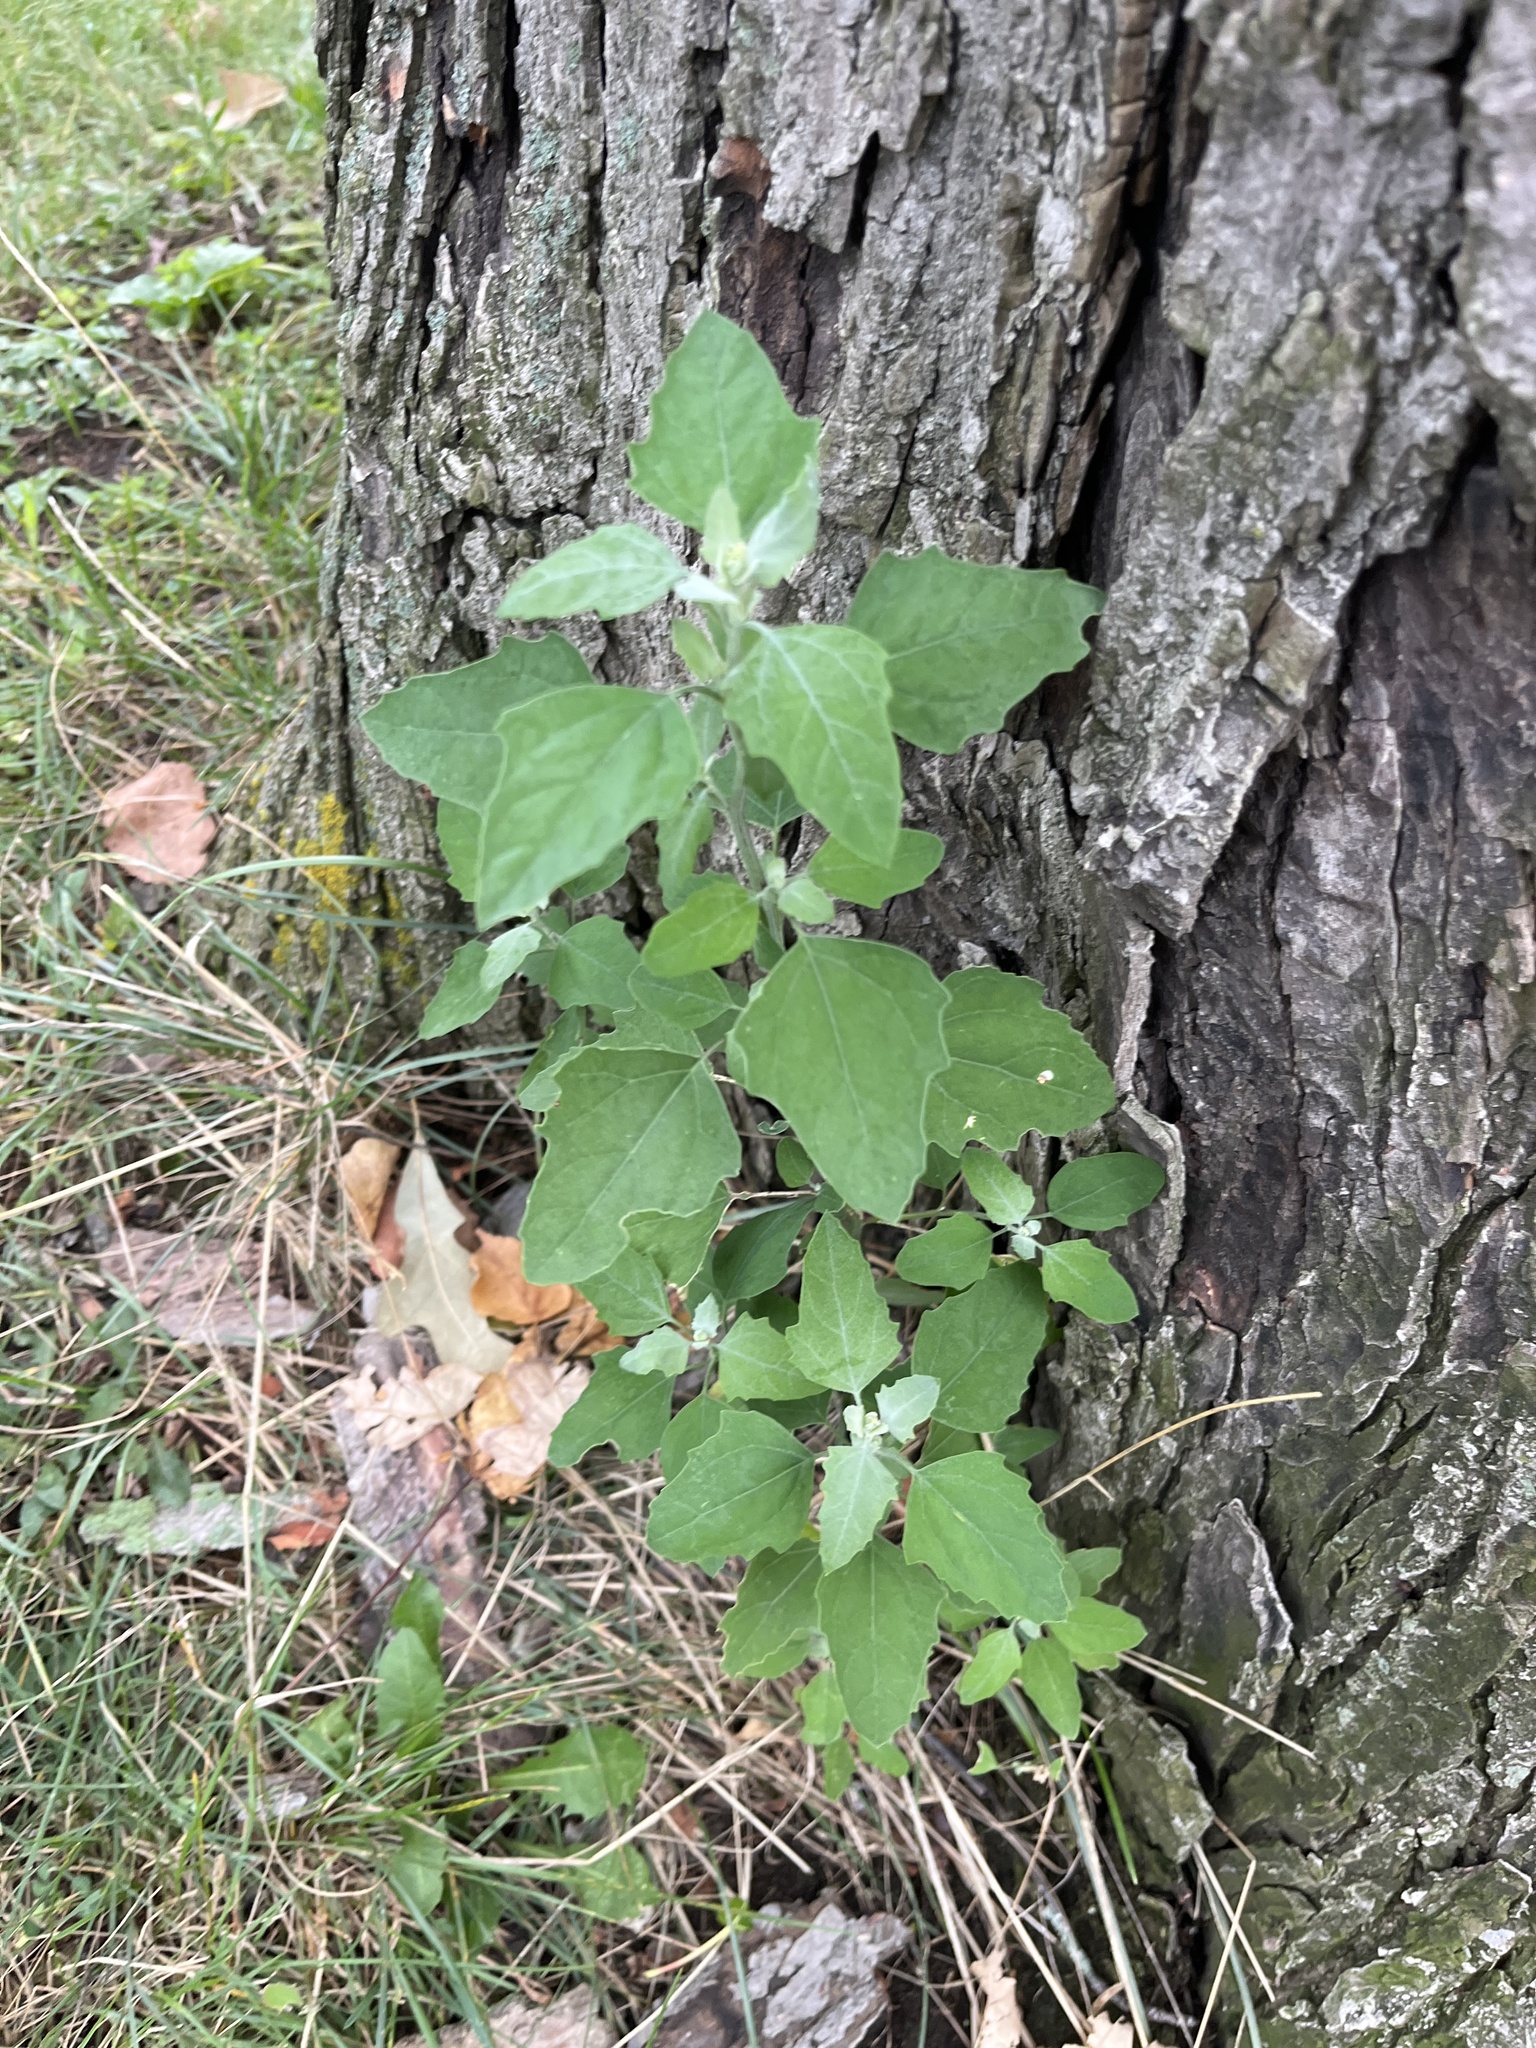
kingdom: Plantae
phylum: Tracheophyta
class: Magnoliopsida
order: Caryophyllales
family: Amaranthaceae
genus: Chenopodium
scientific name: Chenopodium album
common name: Fat-hen
